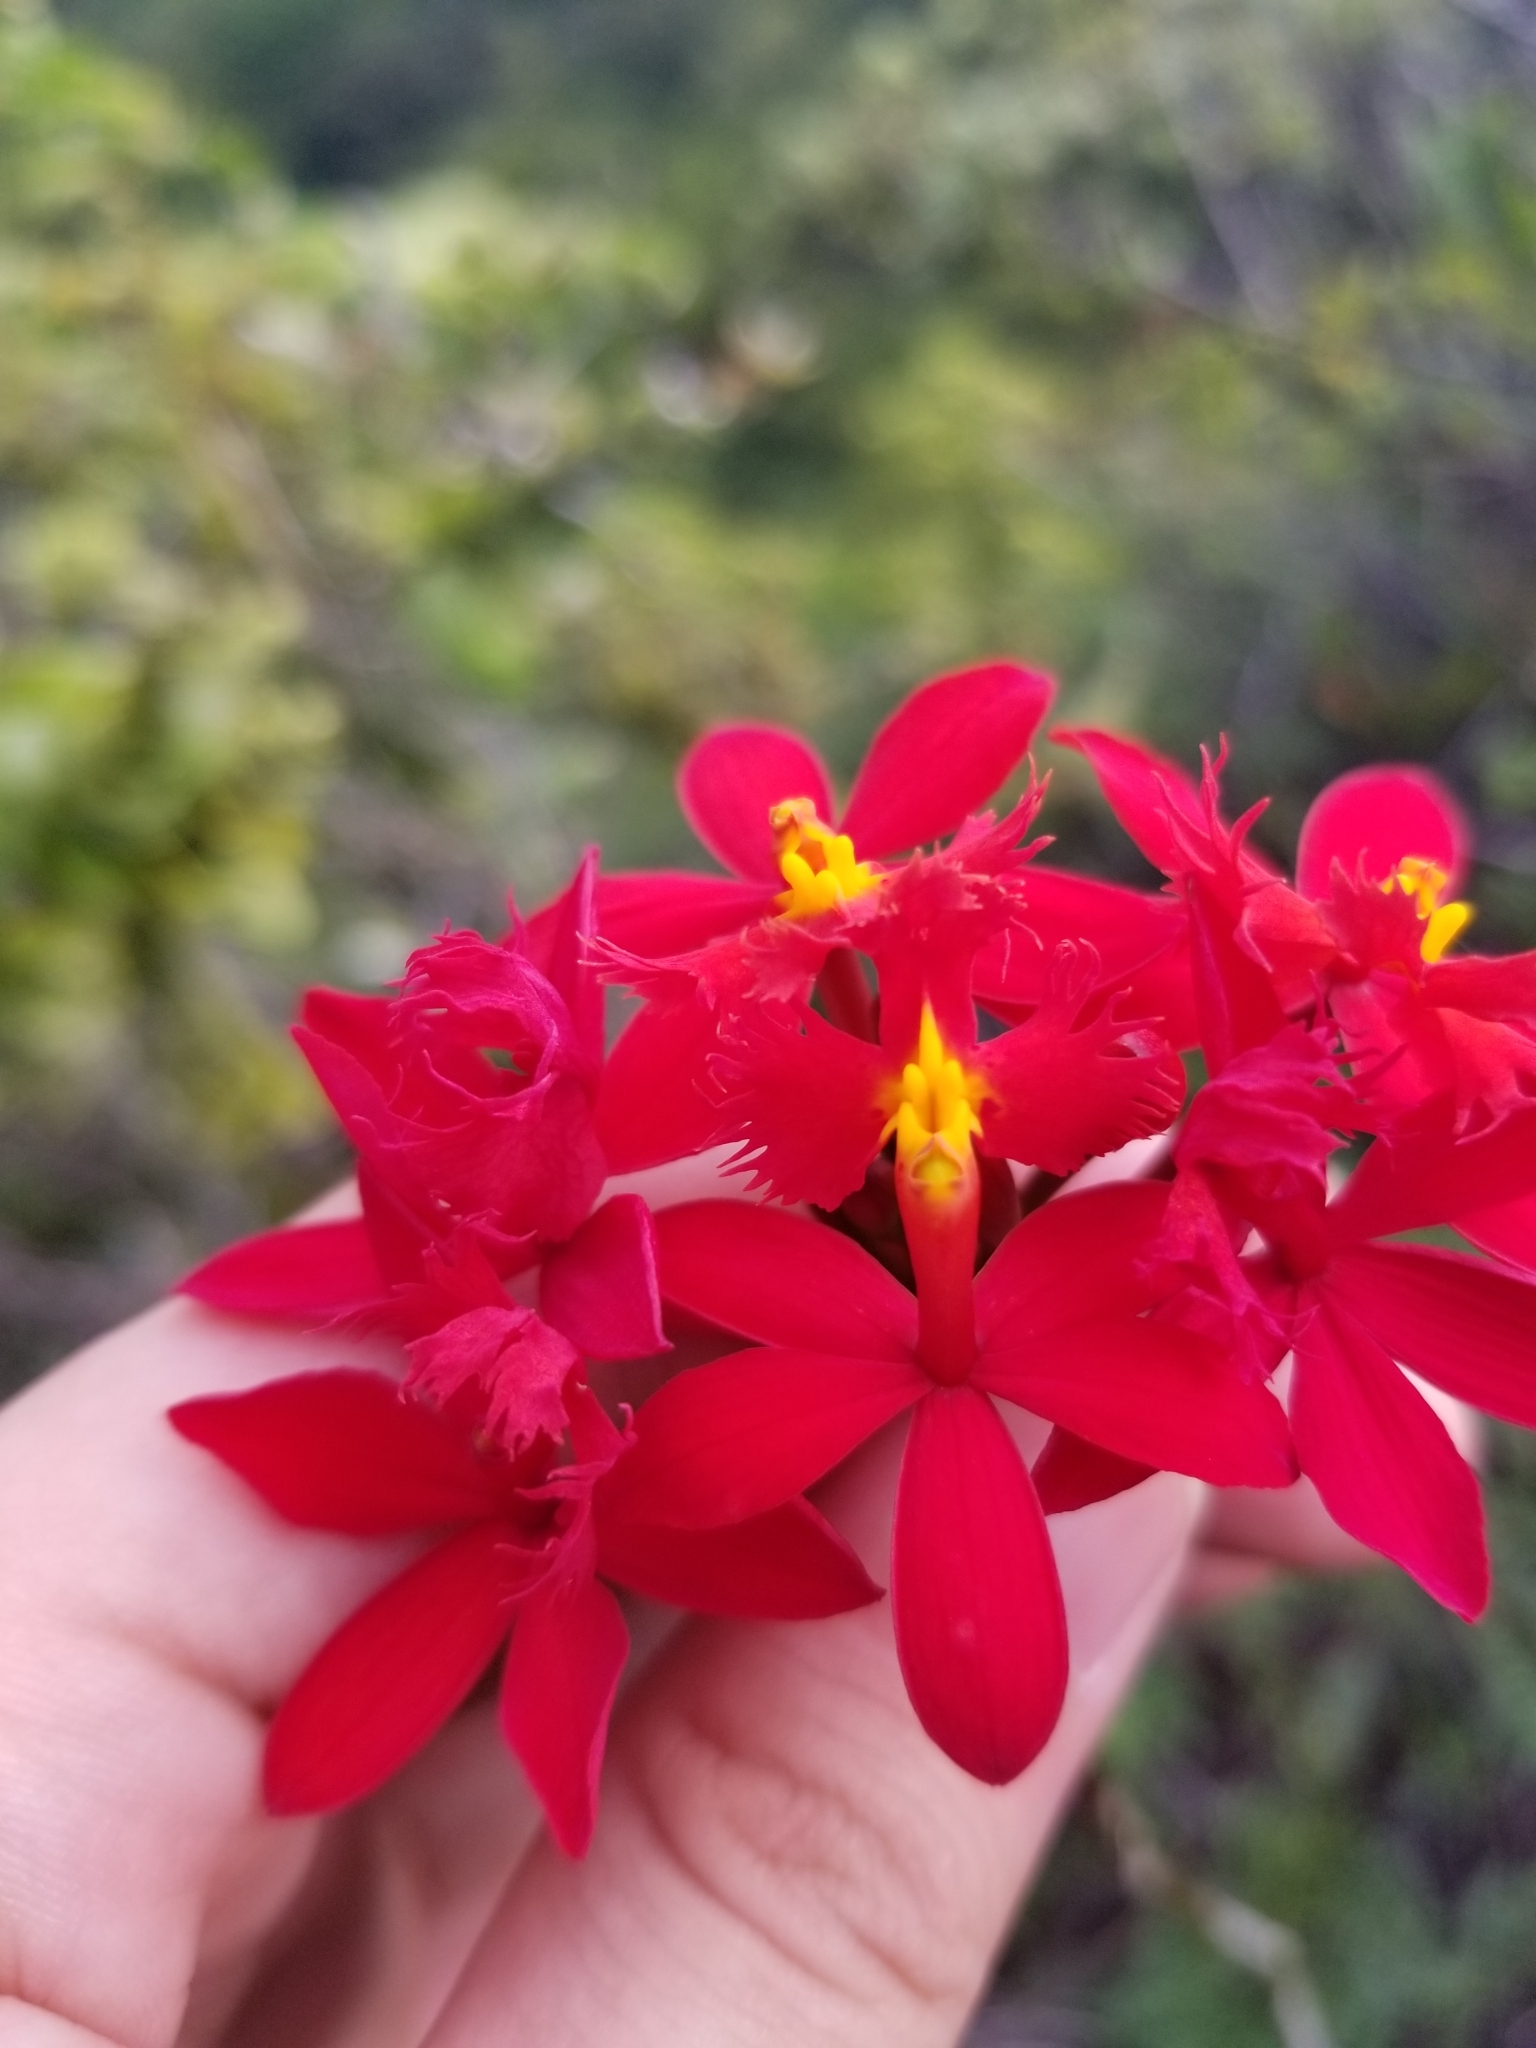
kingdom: Plantae
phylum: Tracheophyta
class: Liliopsida
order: Asparagales
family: Orchidaceae
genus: Epidendrum
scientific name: Epidendrum obrienianum
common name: O'brien's star orchid
